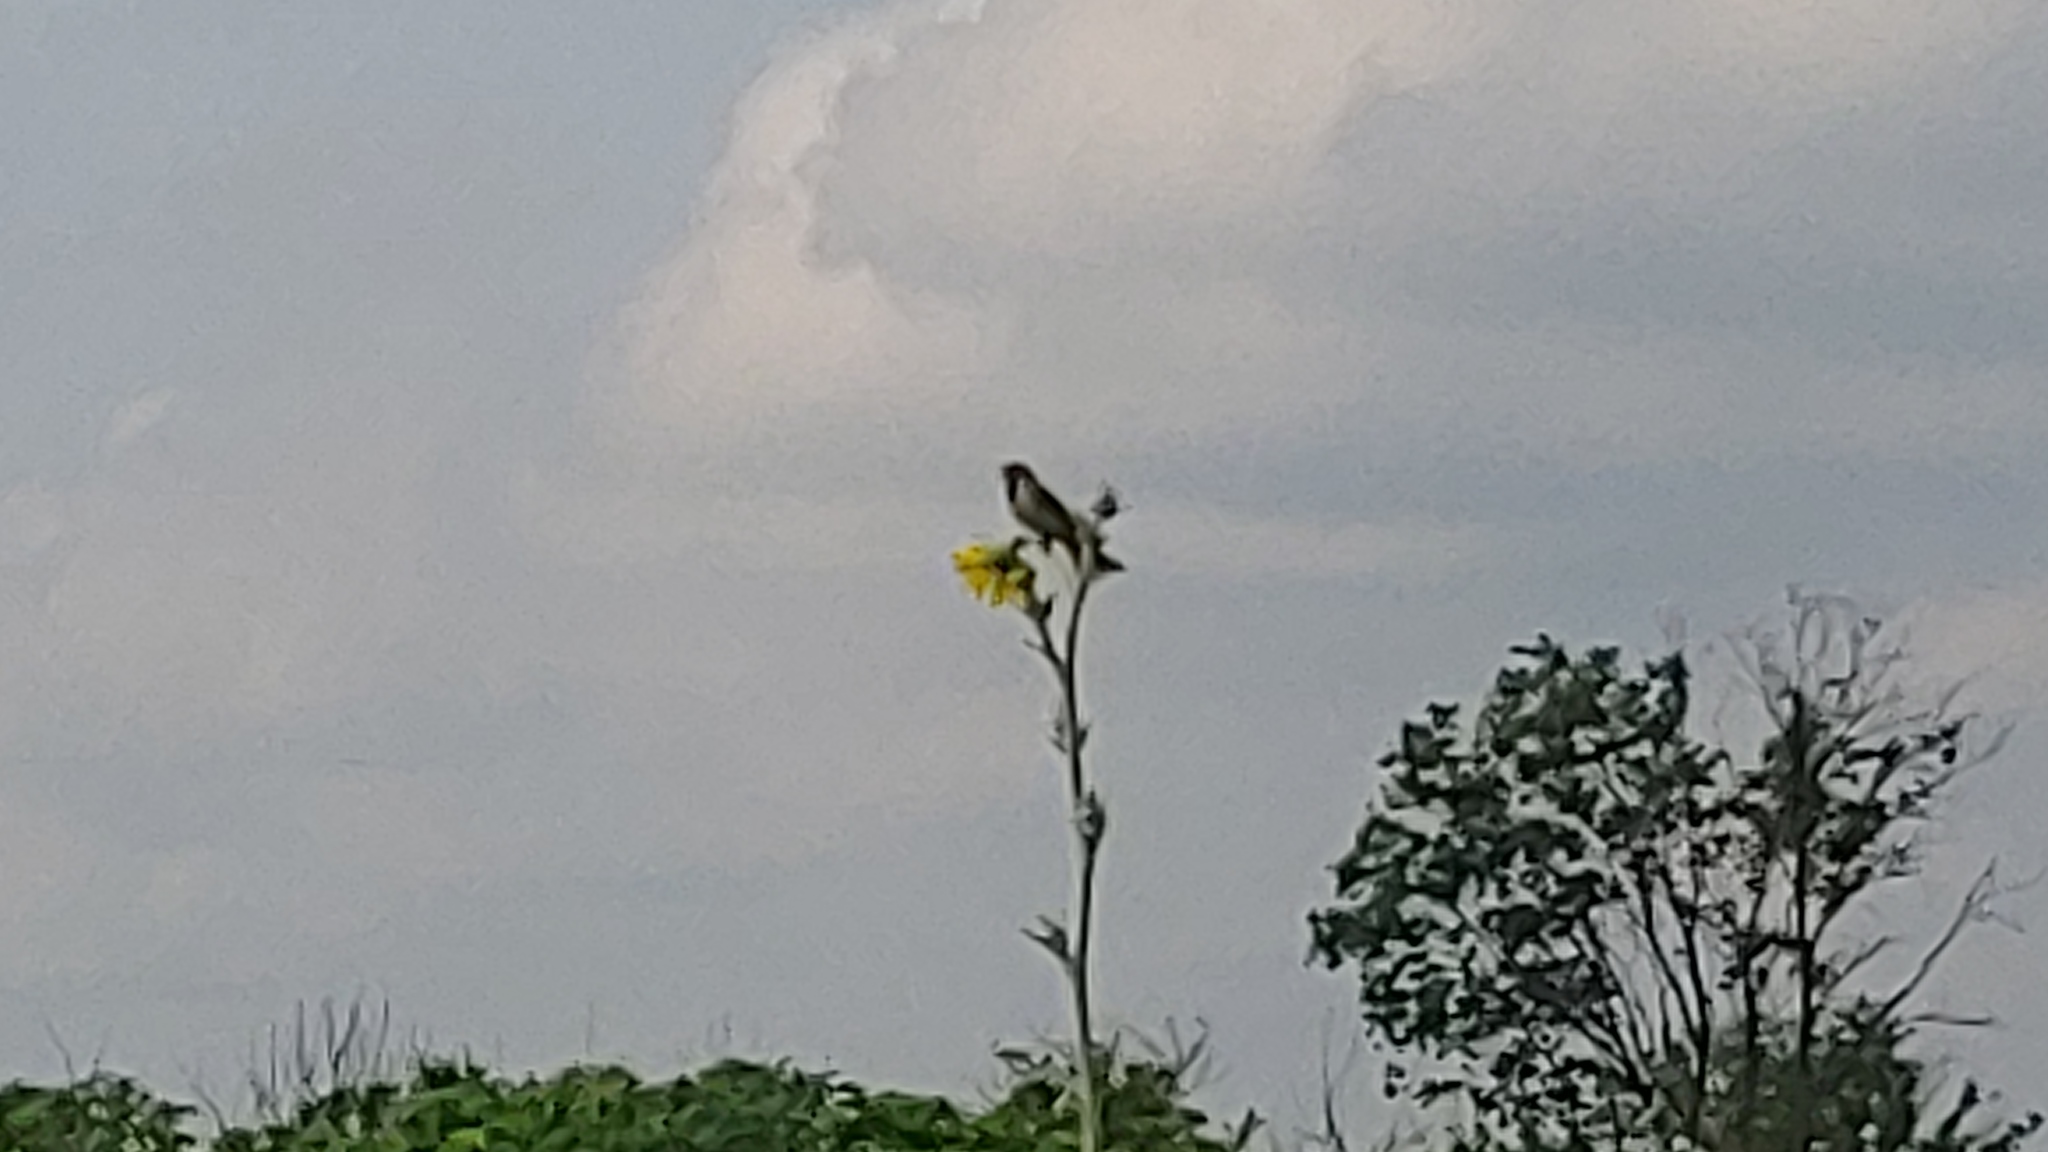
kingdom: Animalia
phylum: Chordata
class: Aves
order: Passeriformes
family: Cardinalidae
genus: Spiza
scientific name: Spiza americana
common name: Dickcissel
